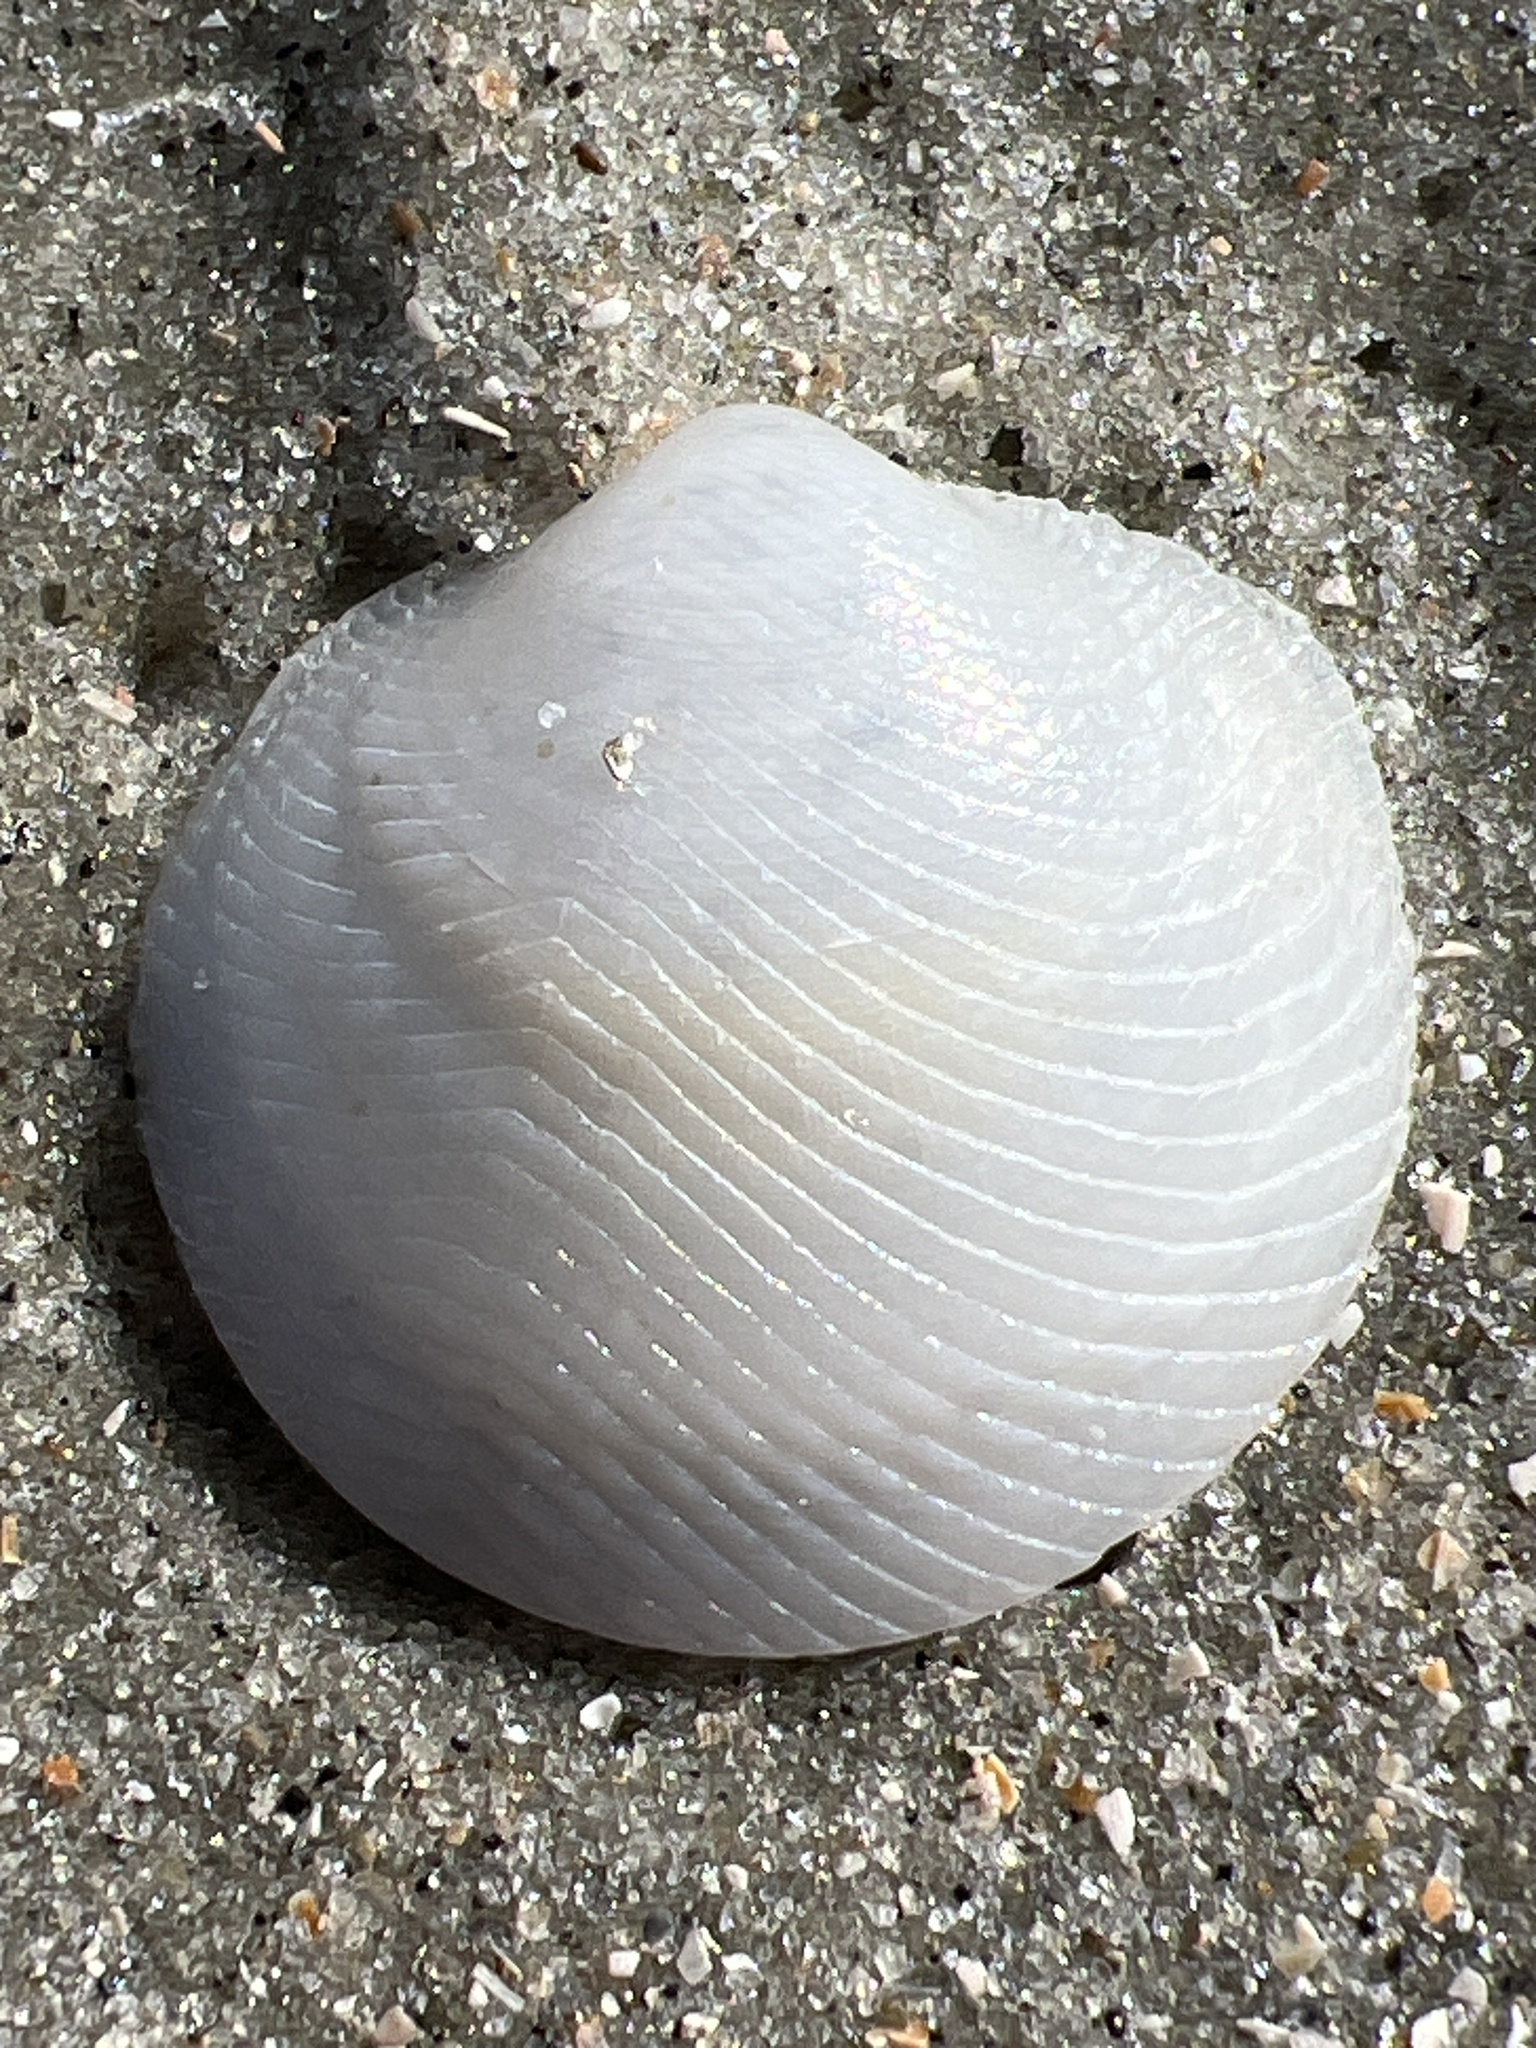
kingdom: Animalia
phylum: Mollusca
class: Bivalvia
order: Lucinida
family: Lucinidae
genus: Divalinga
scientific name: Divalinga quadrisulcata
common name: Cross-hatched lucine
